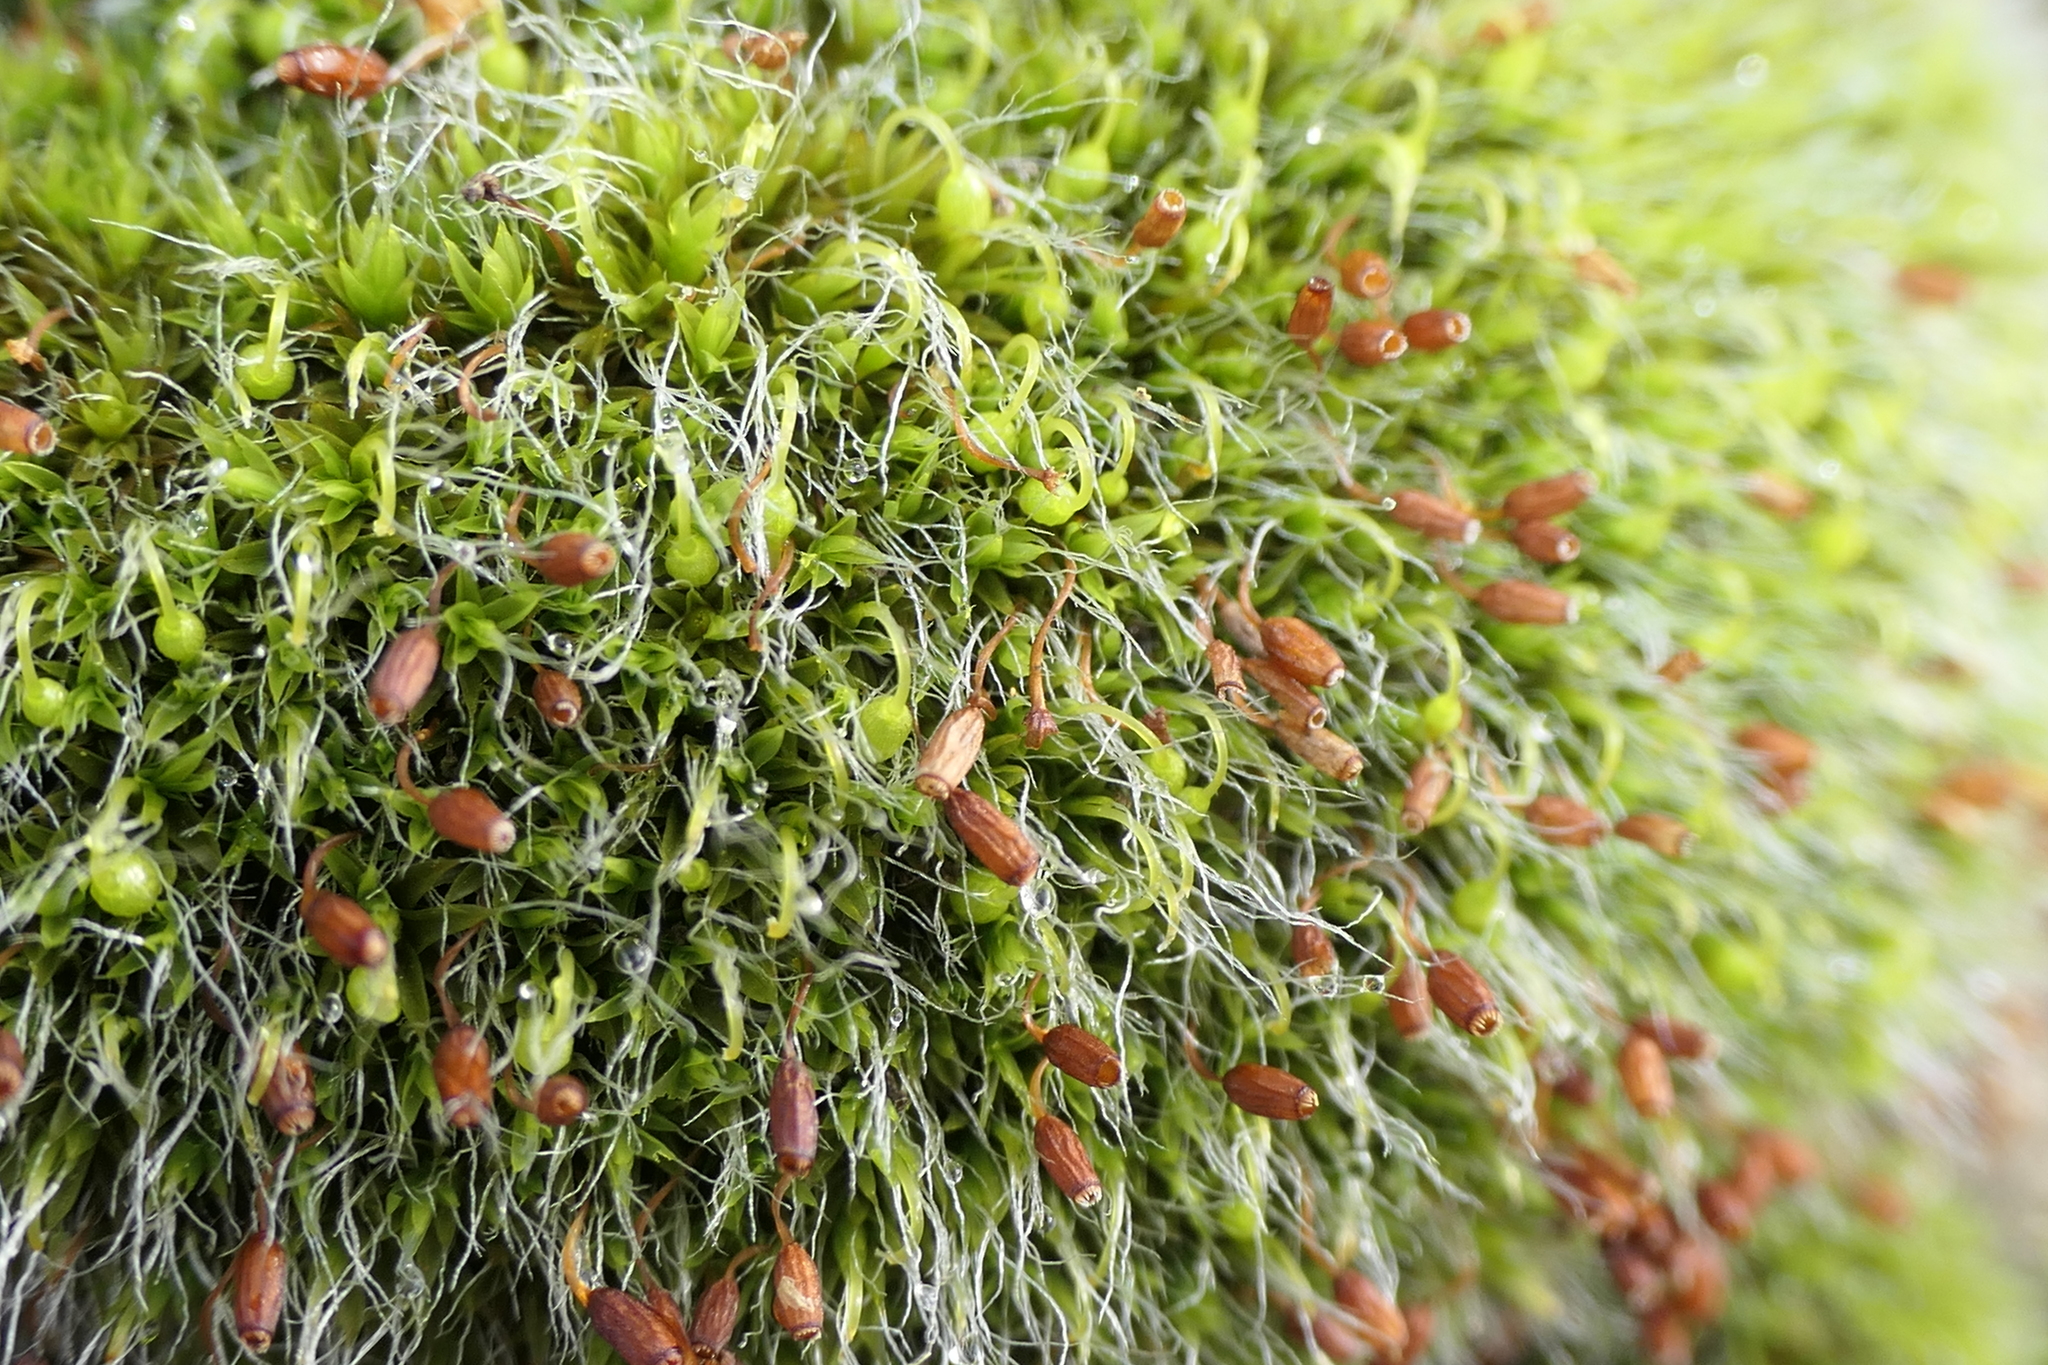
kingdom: Plantae
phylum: Bryophyta
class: Bryopsida
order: Grimmiales
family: Grimmiaceae
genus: Grimmia
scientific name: Grimmia pulvinata
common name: Grey-cushioned grimmia
